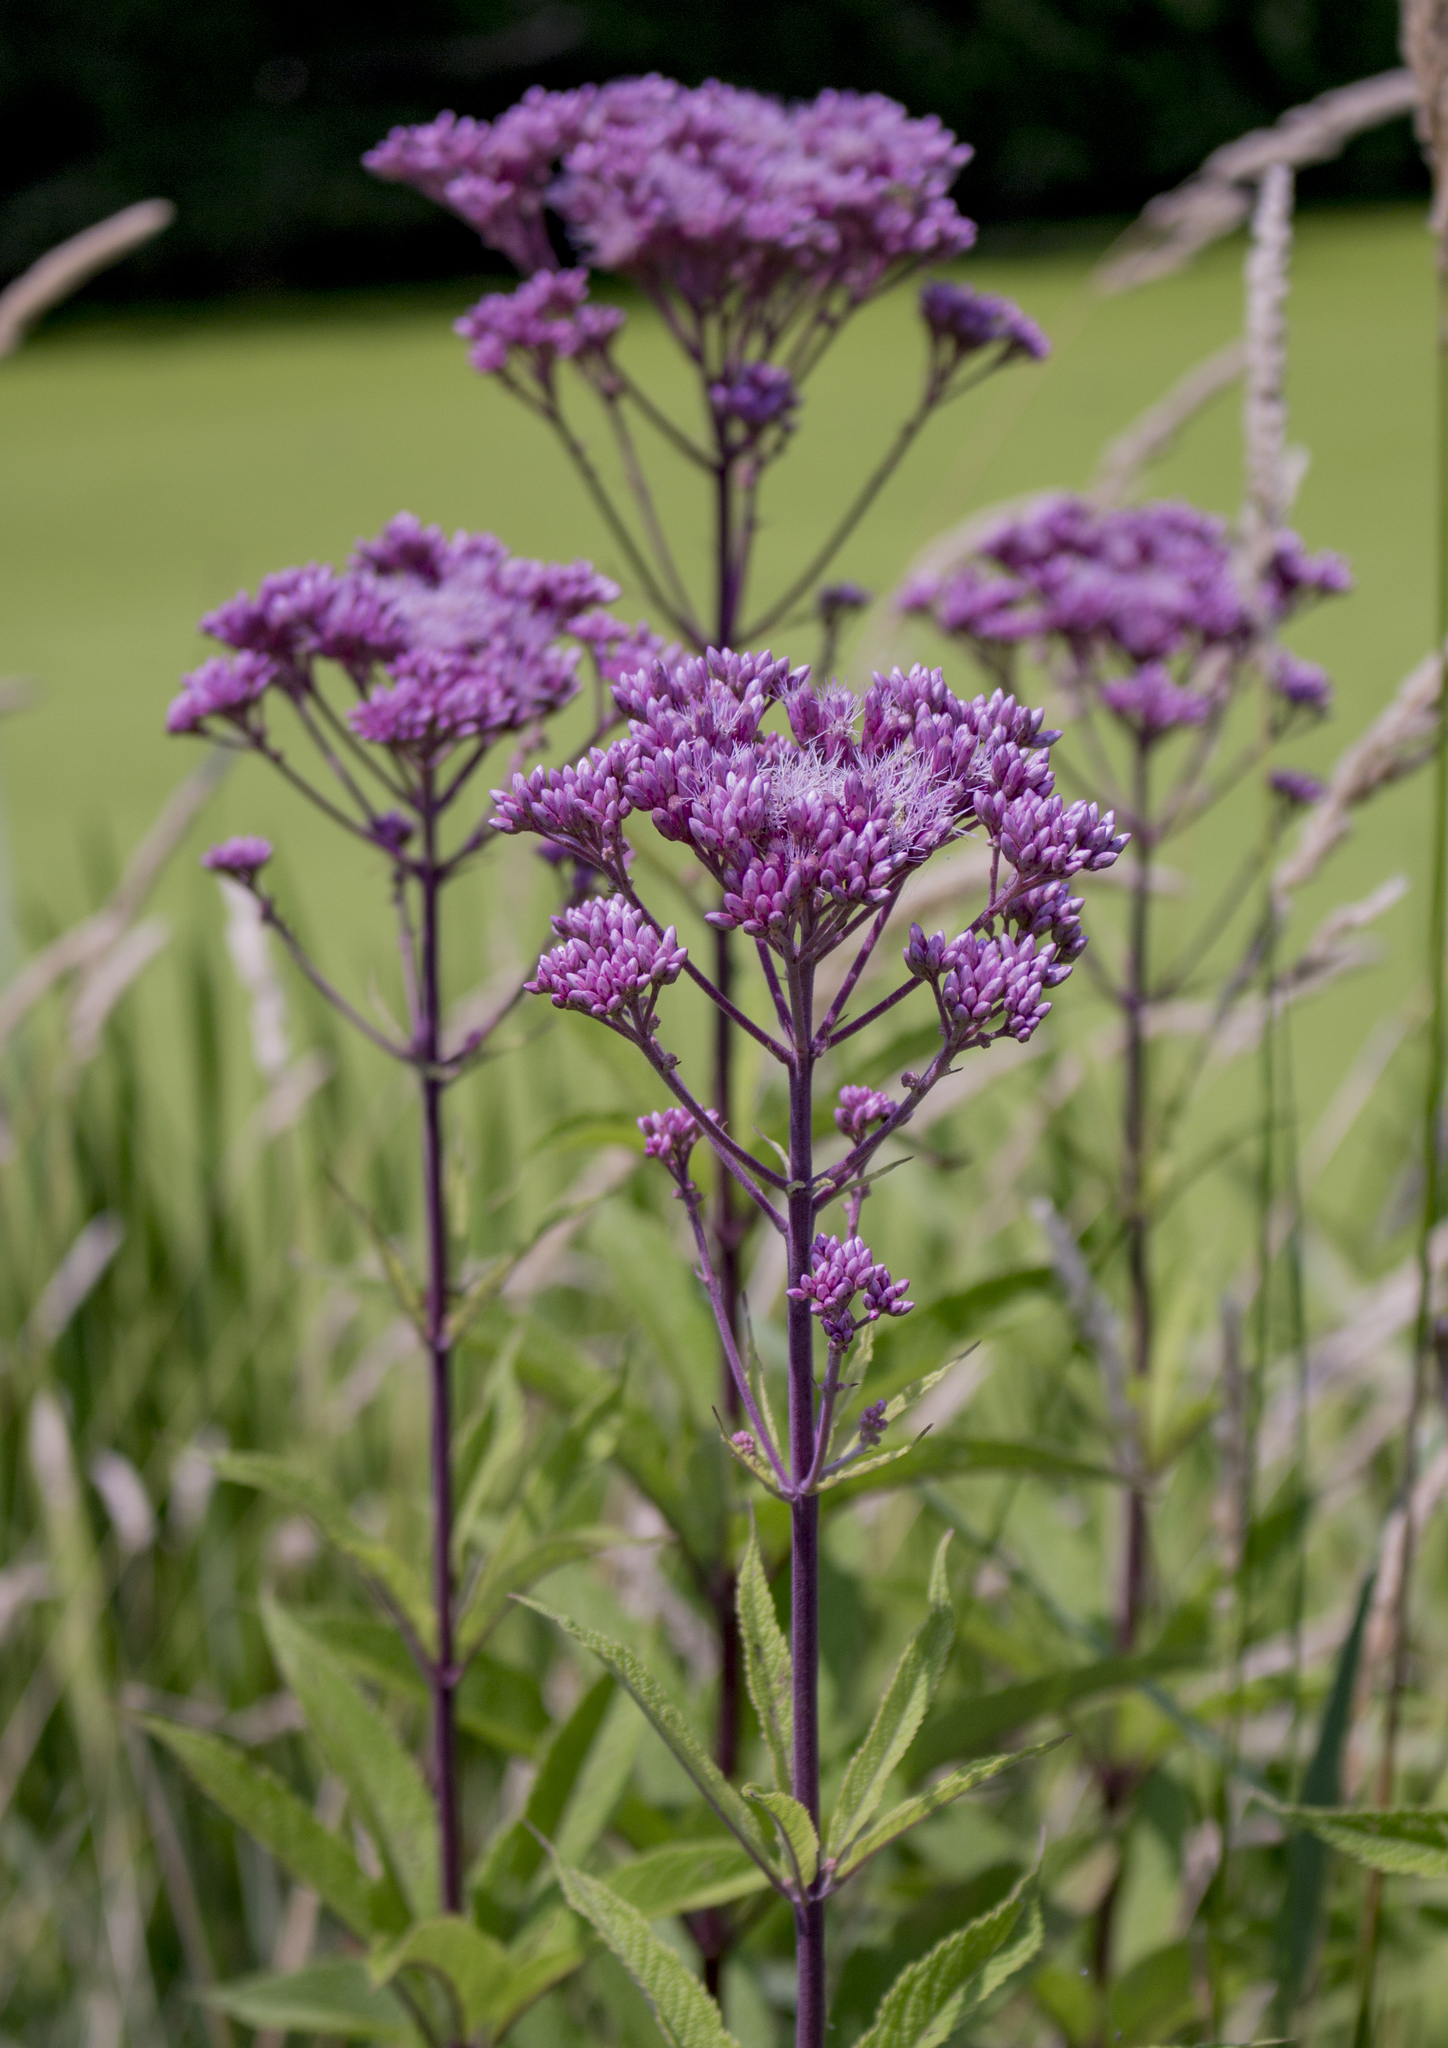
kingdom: Plantae
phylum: Tracheophyta
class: Magnoliopsida
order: Asterales
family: Asteraceae
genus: Eutrochium
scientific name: Eutrochium maculatum
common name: Spotted joe pye weed
